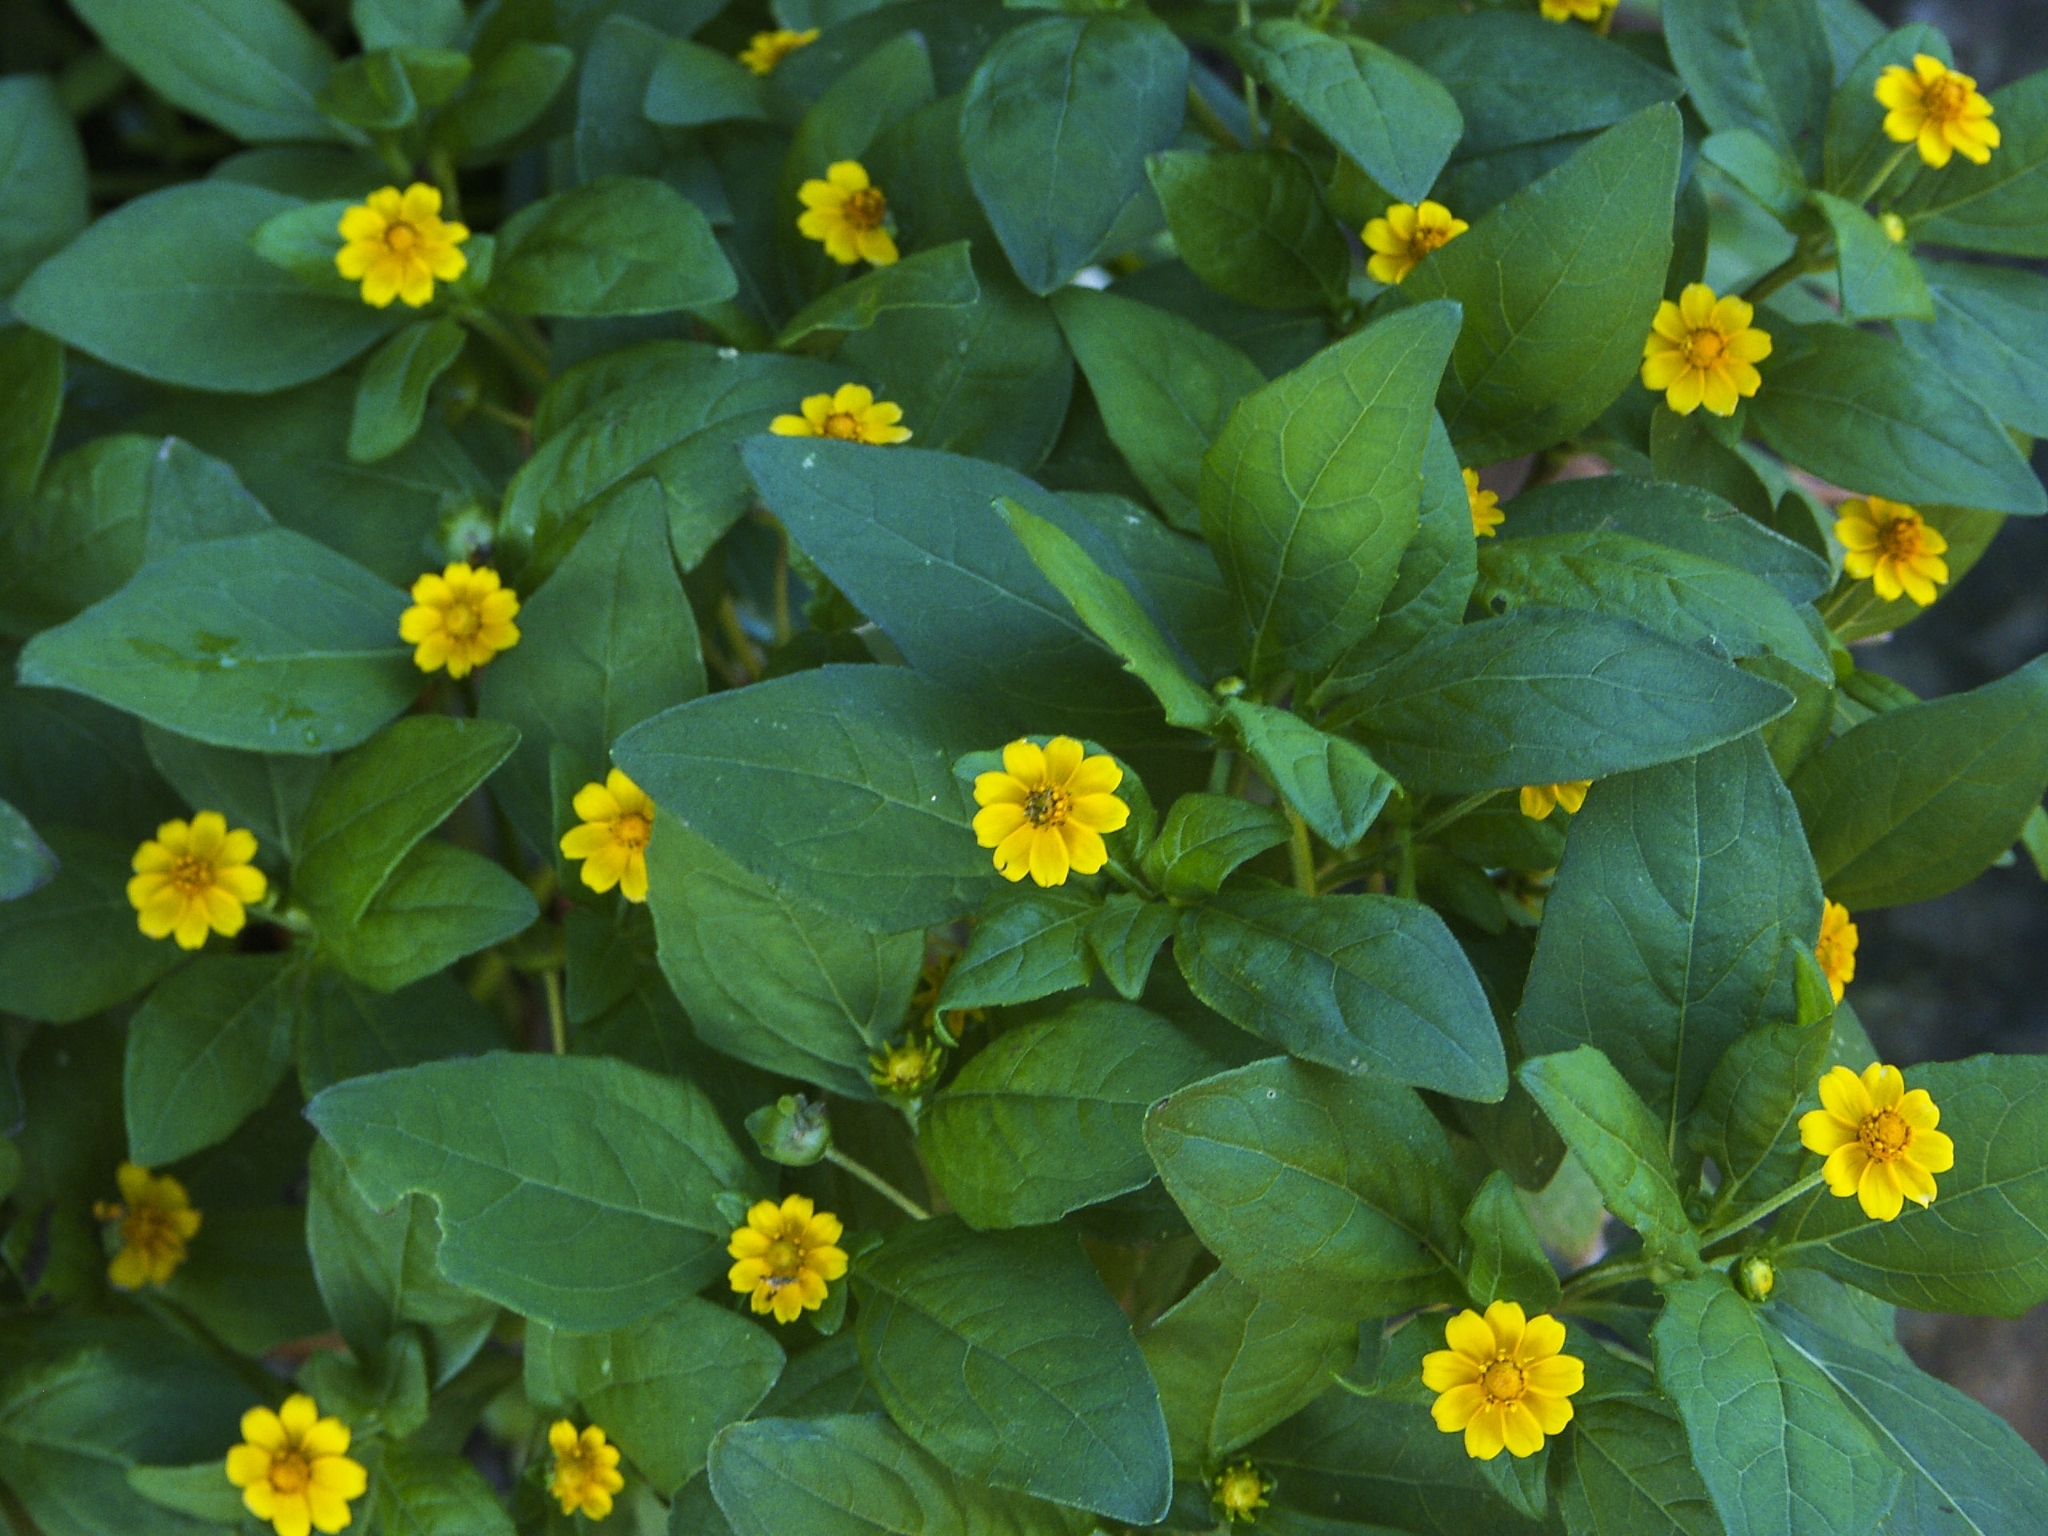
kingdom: Plantae
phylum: Tracheophyta
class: Magnoliopsida
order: Asterales
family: Asteraceae
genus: Melampodium
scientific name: Melampodium divaricatum
